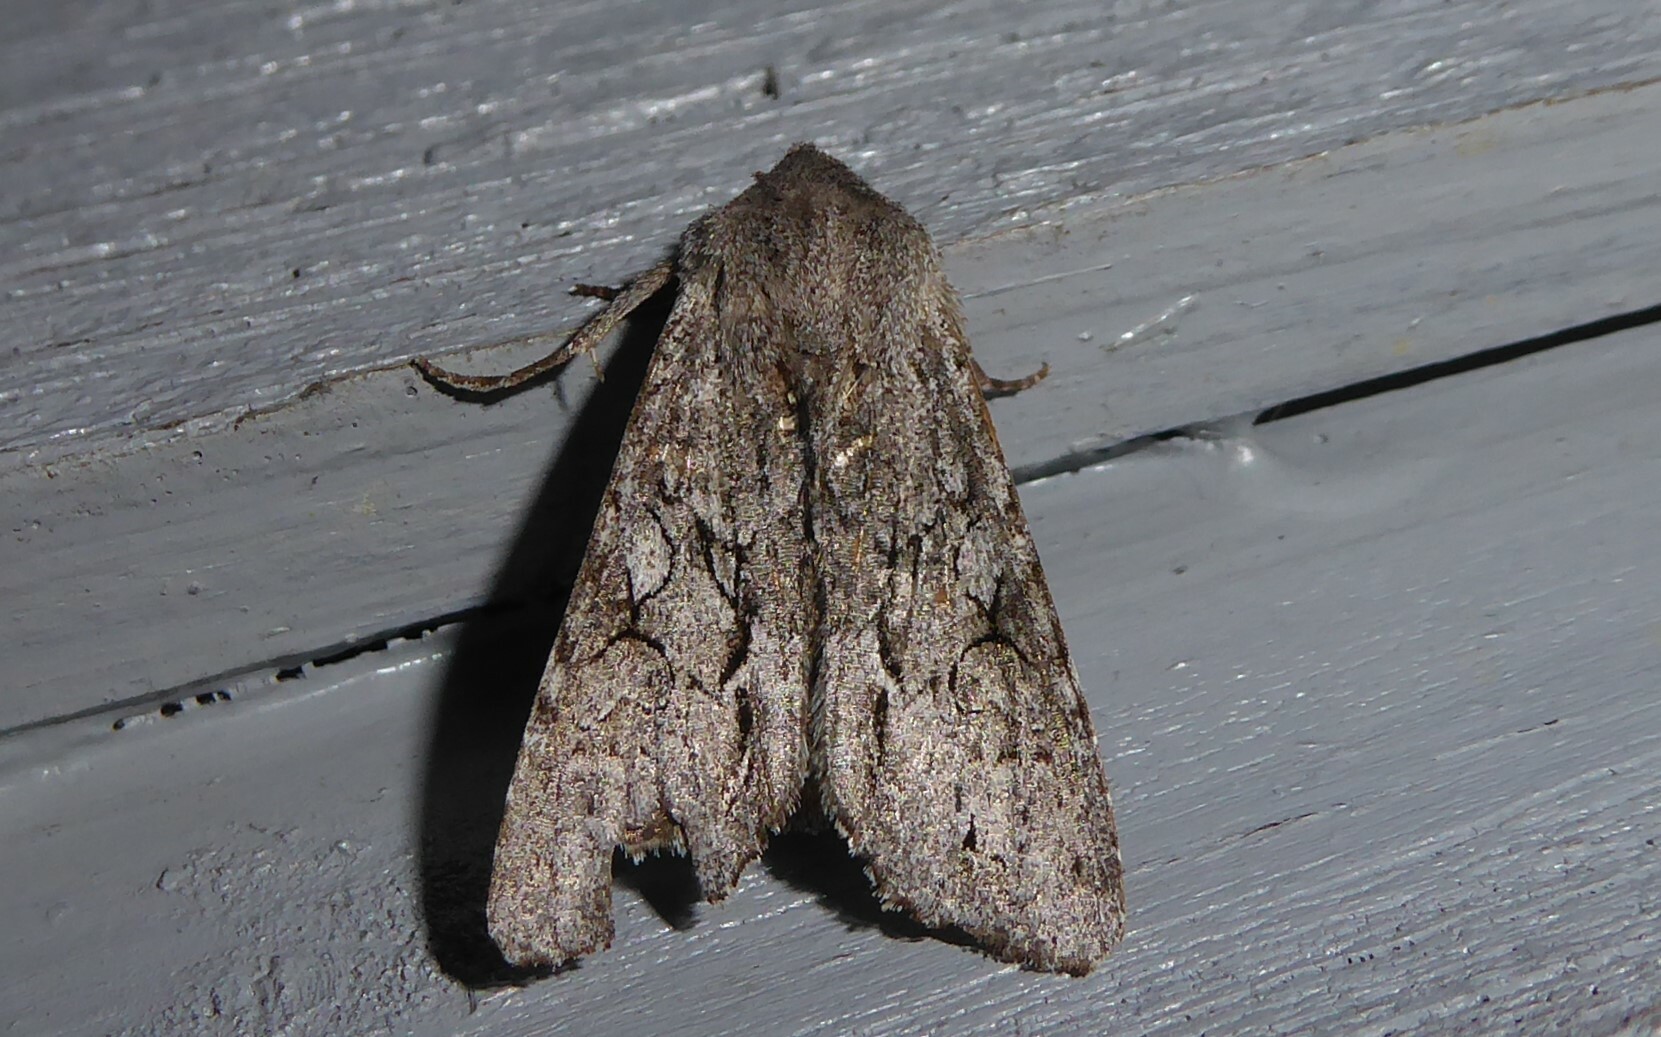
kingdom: Animalia
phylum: Arthropoda
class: Insecta
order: Lepidoptera
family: Noctuidae
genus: Ichneutica
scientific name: Ichneutica
